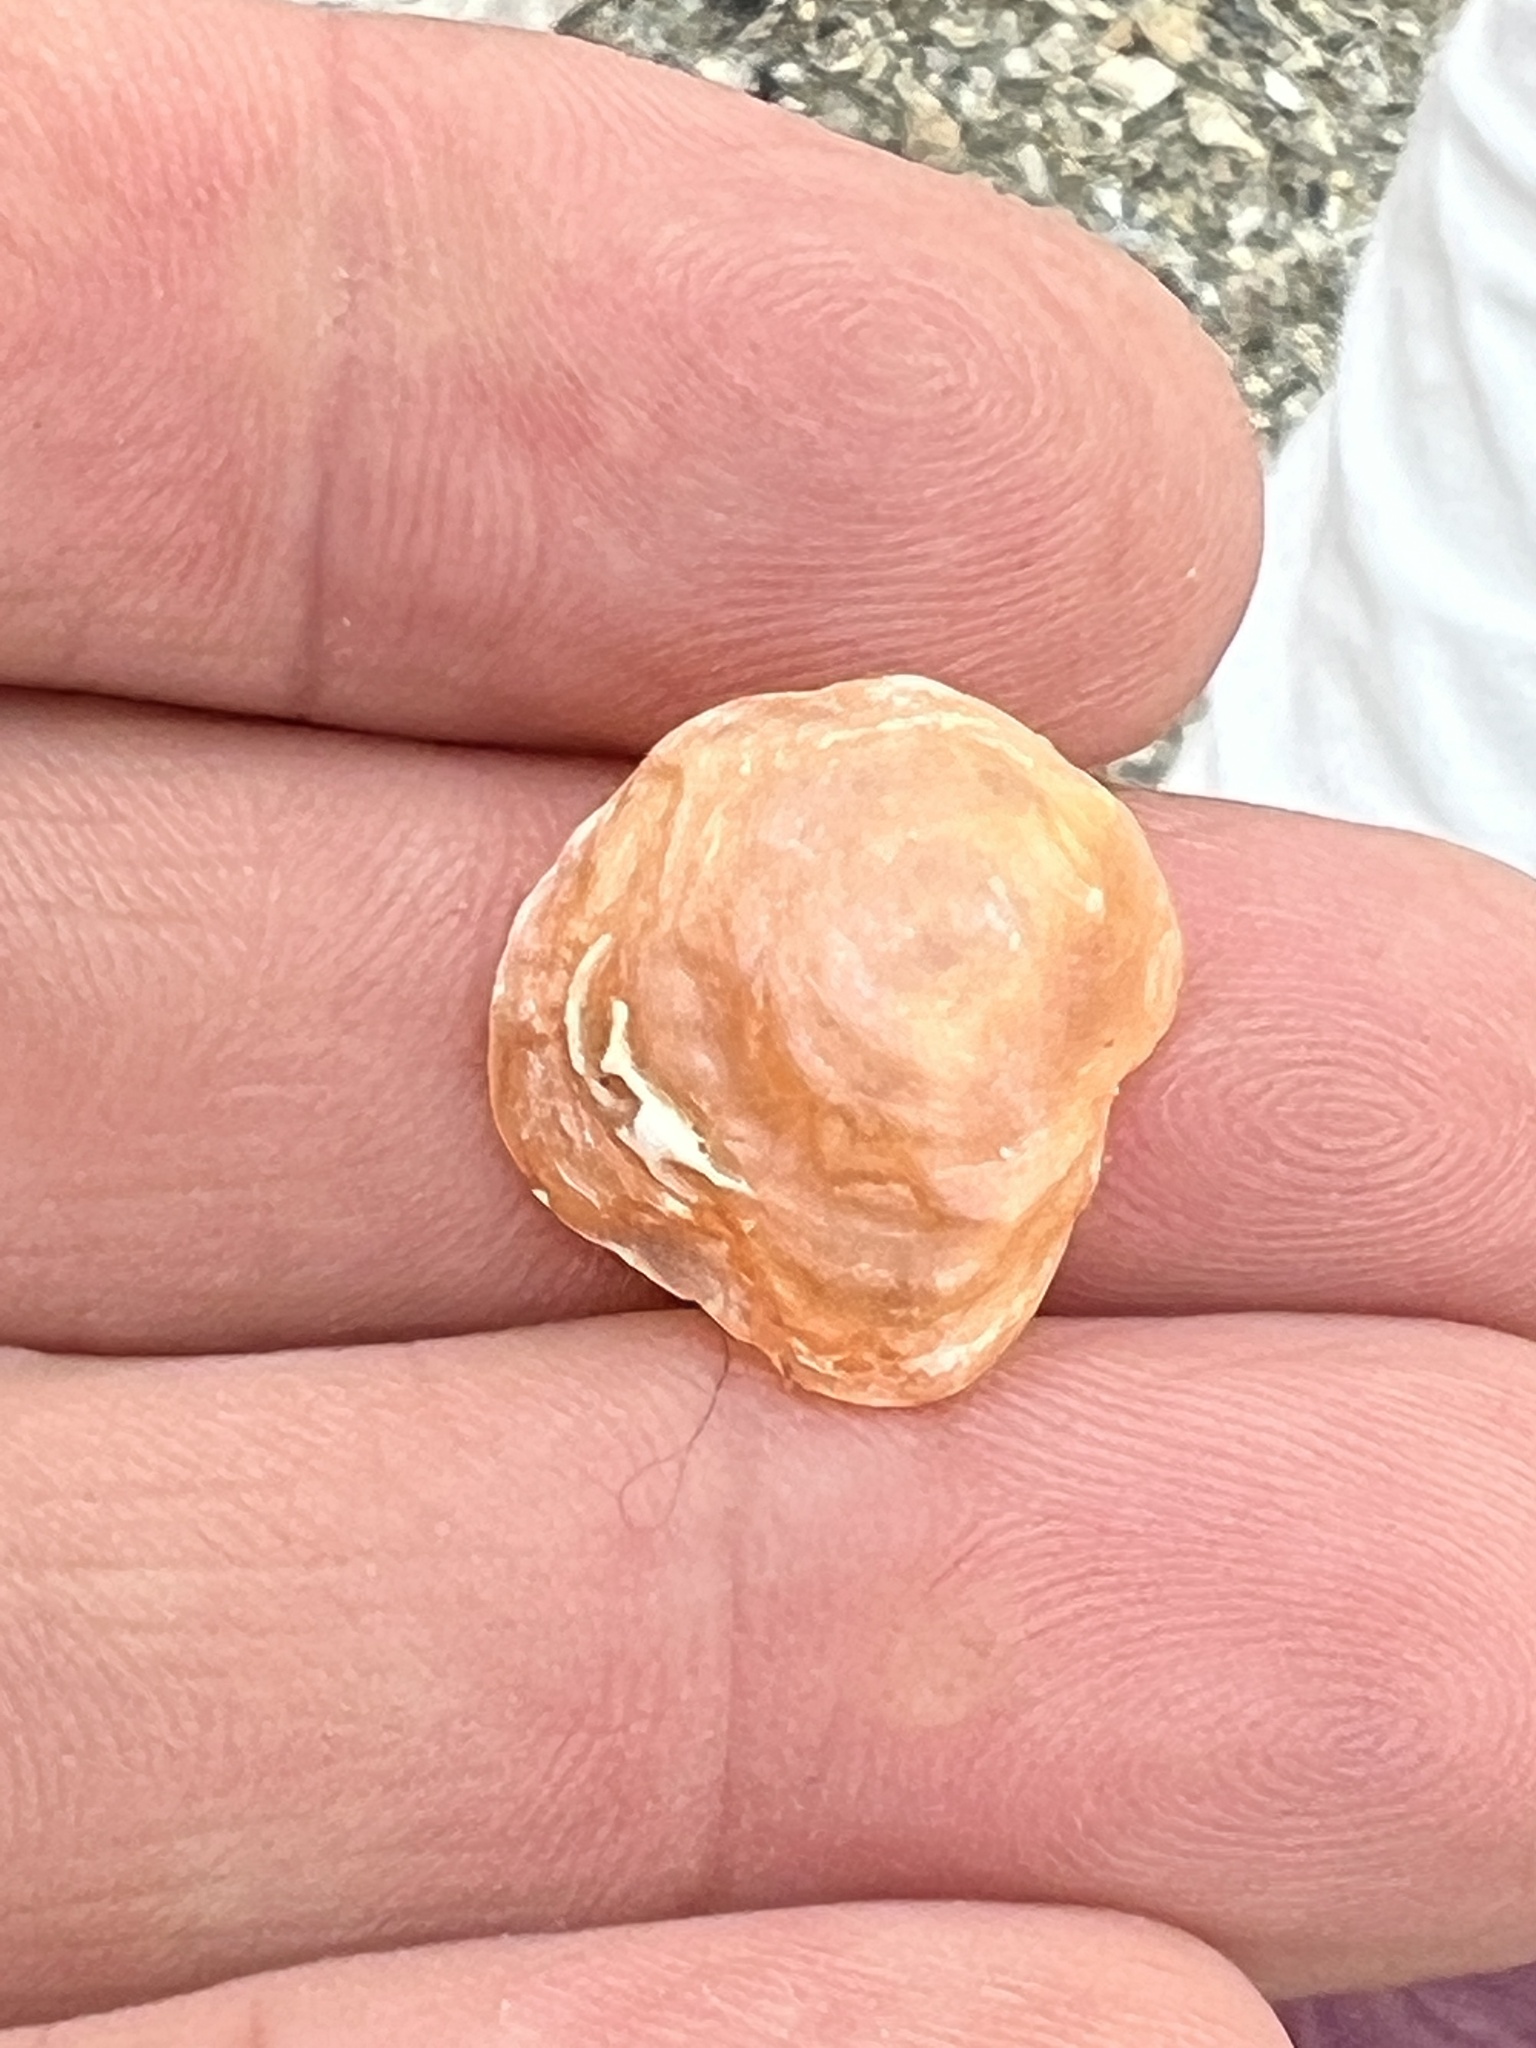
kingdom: Animalia
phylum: Mollusca
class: Bivalvia
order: Pectinida
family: Anomiidae
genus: Anomia
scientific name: Anomia simplex
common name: Common jingle shell
